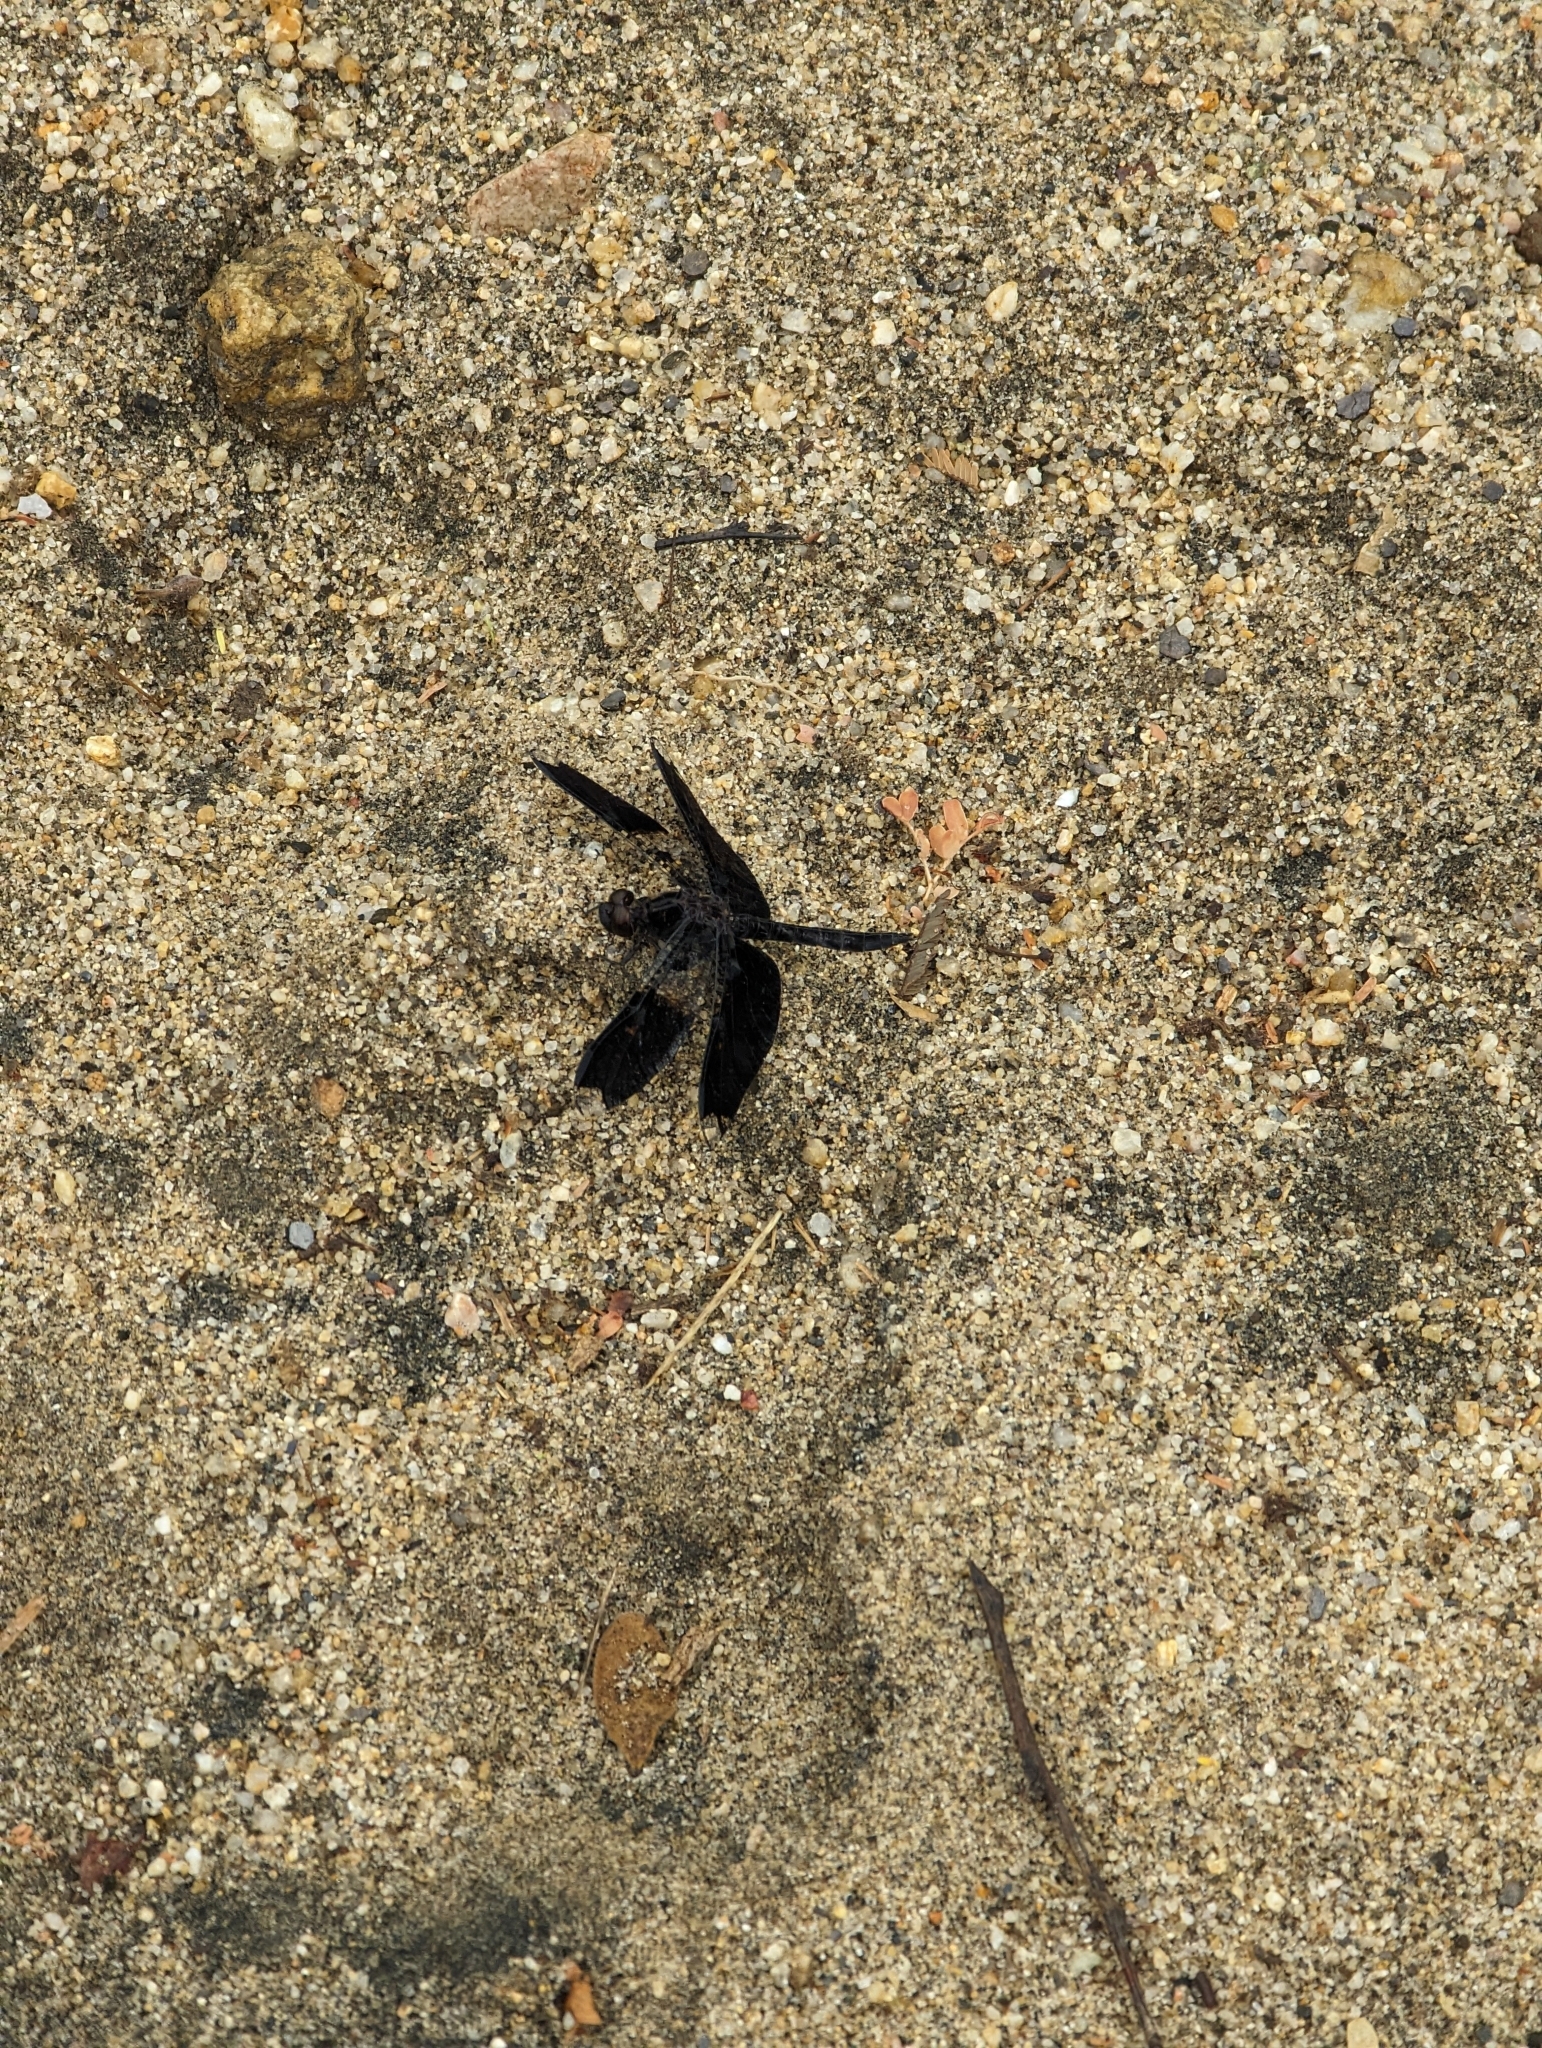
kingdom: Animalia
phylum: Arthropoda
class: Insecta
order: Odonata
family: Libellulidae
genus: Pseudoleon
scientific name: Pseudoleon superbus
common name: Filigree skimmer
